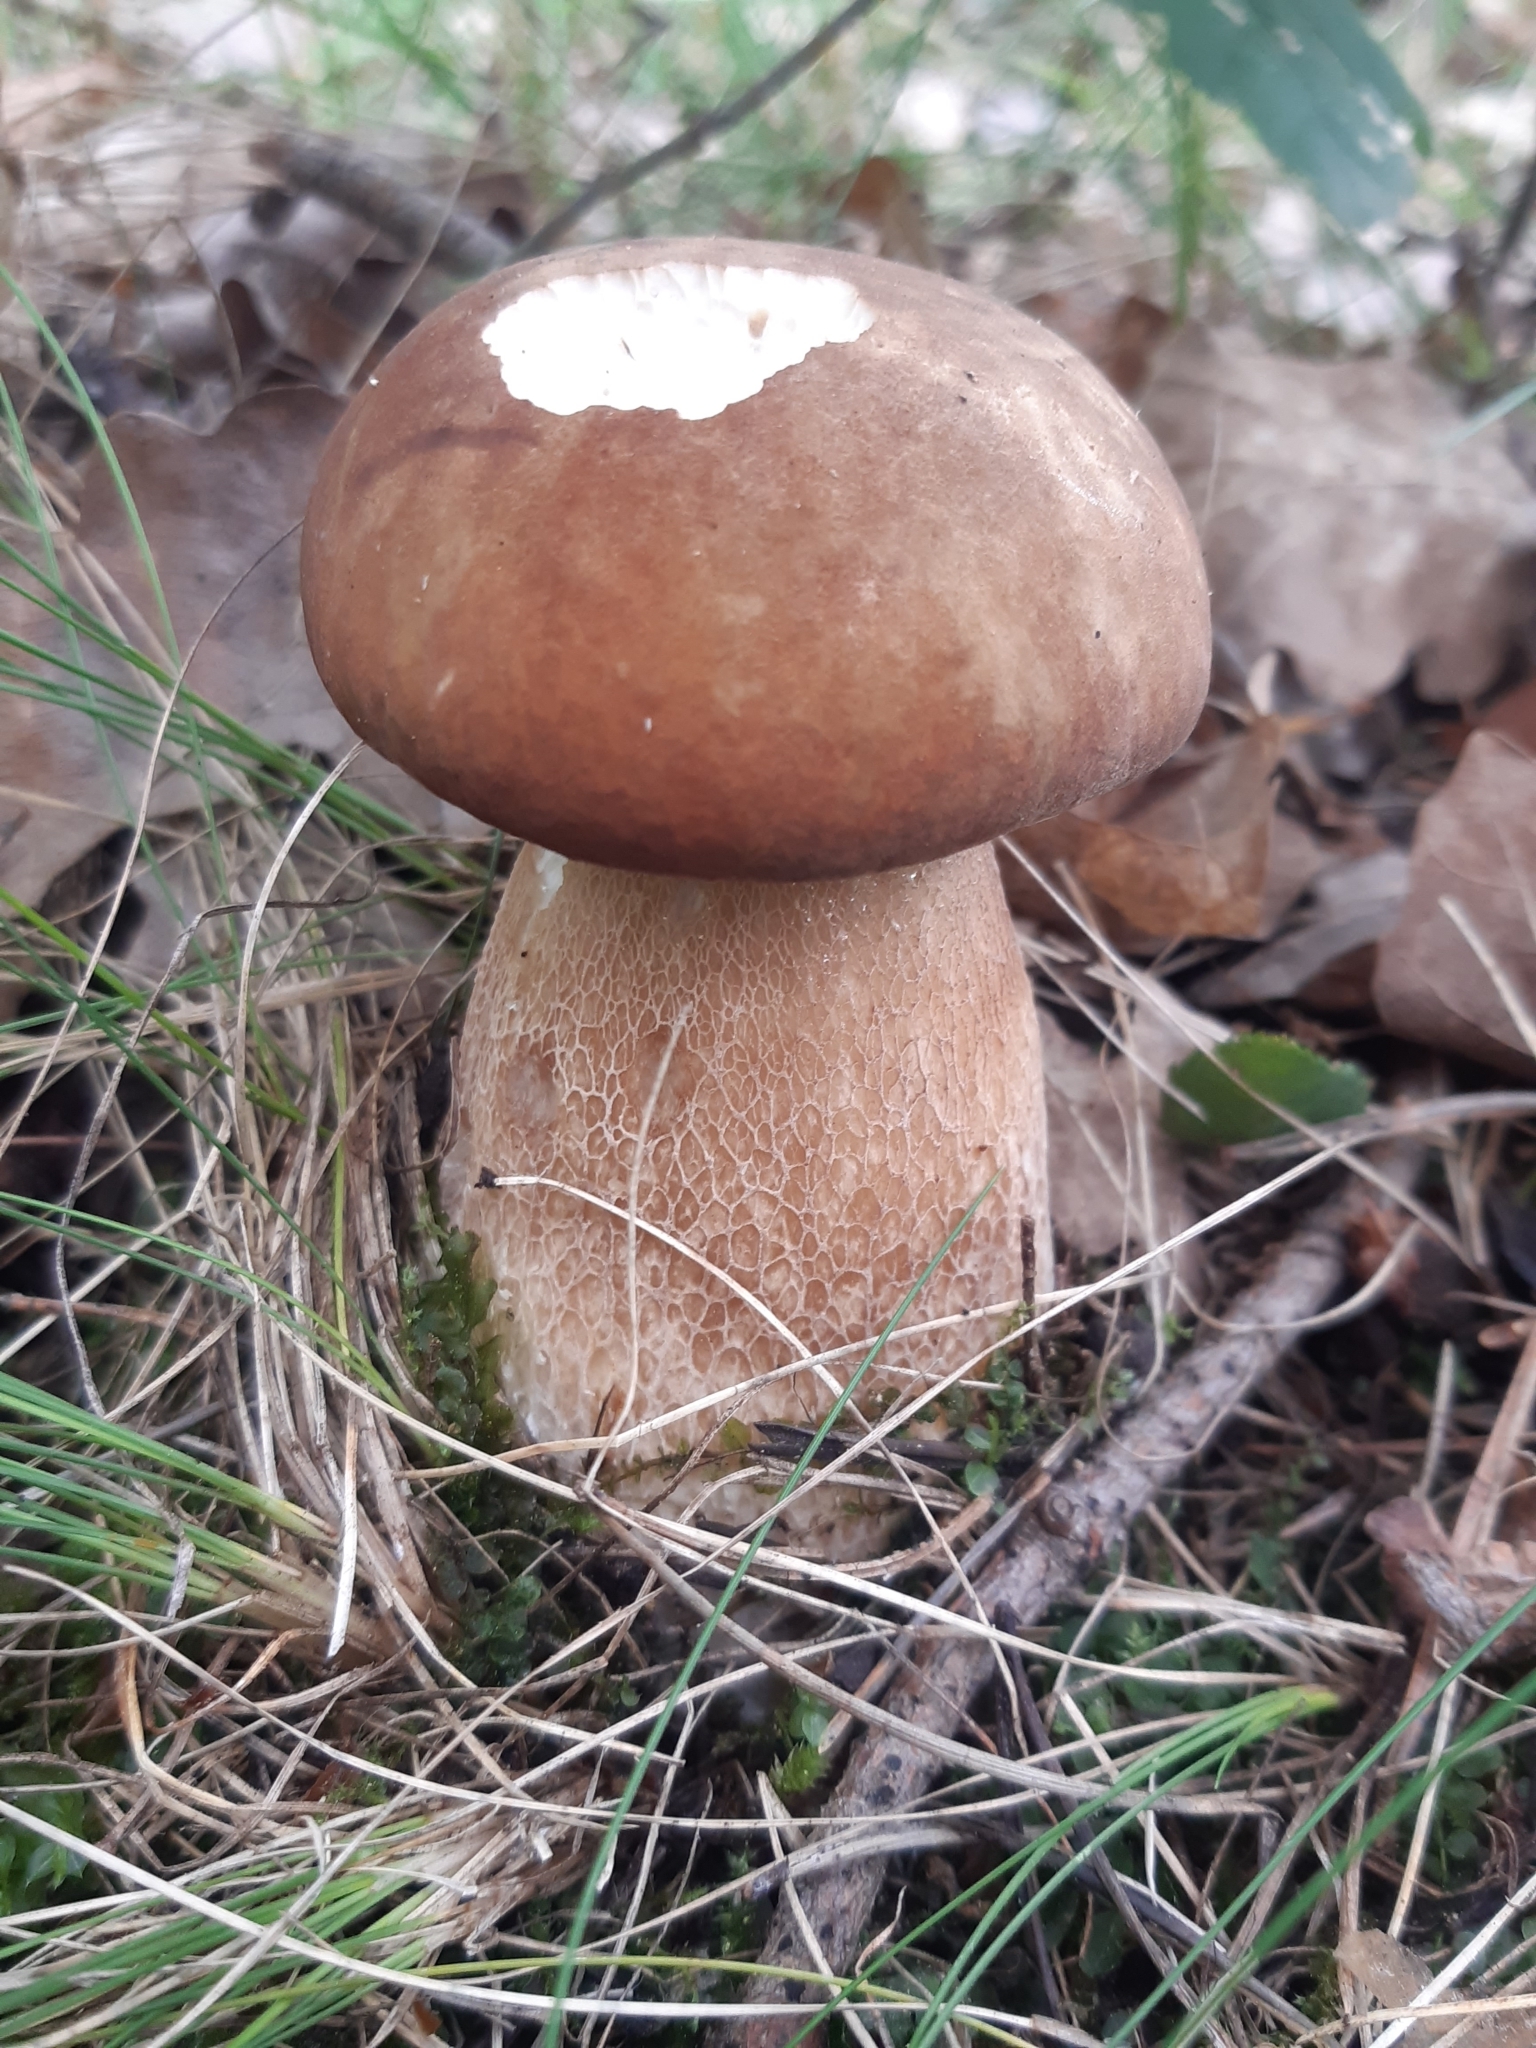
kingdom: Fungi
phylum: Basidiomycota
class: Agaricomycetes
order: Boletales
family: Boletaceae
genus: Boletus
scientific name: Boletus reticulatus
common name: Summer bolete
